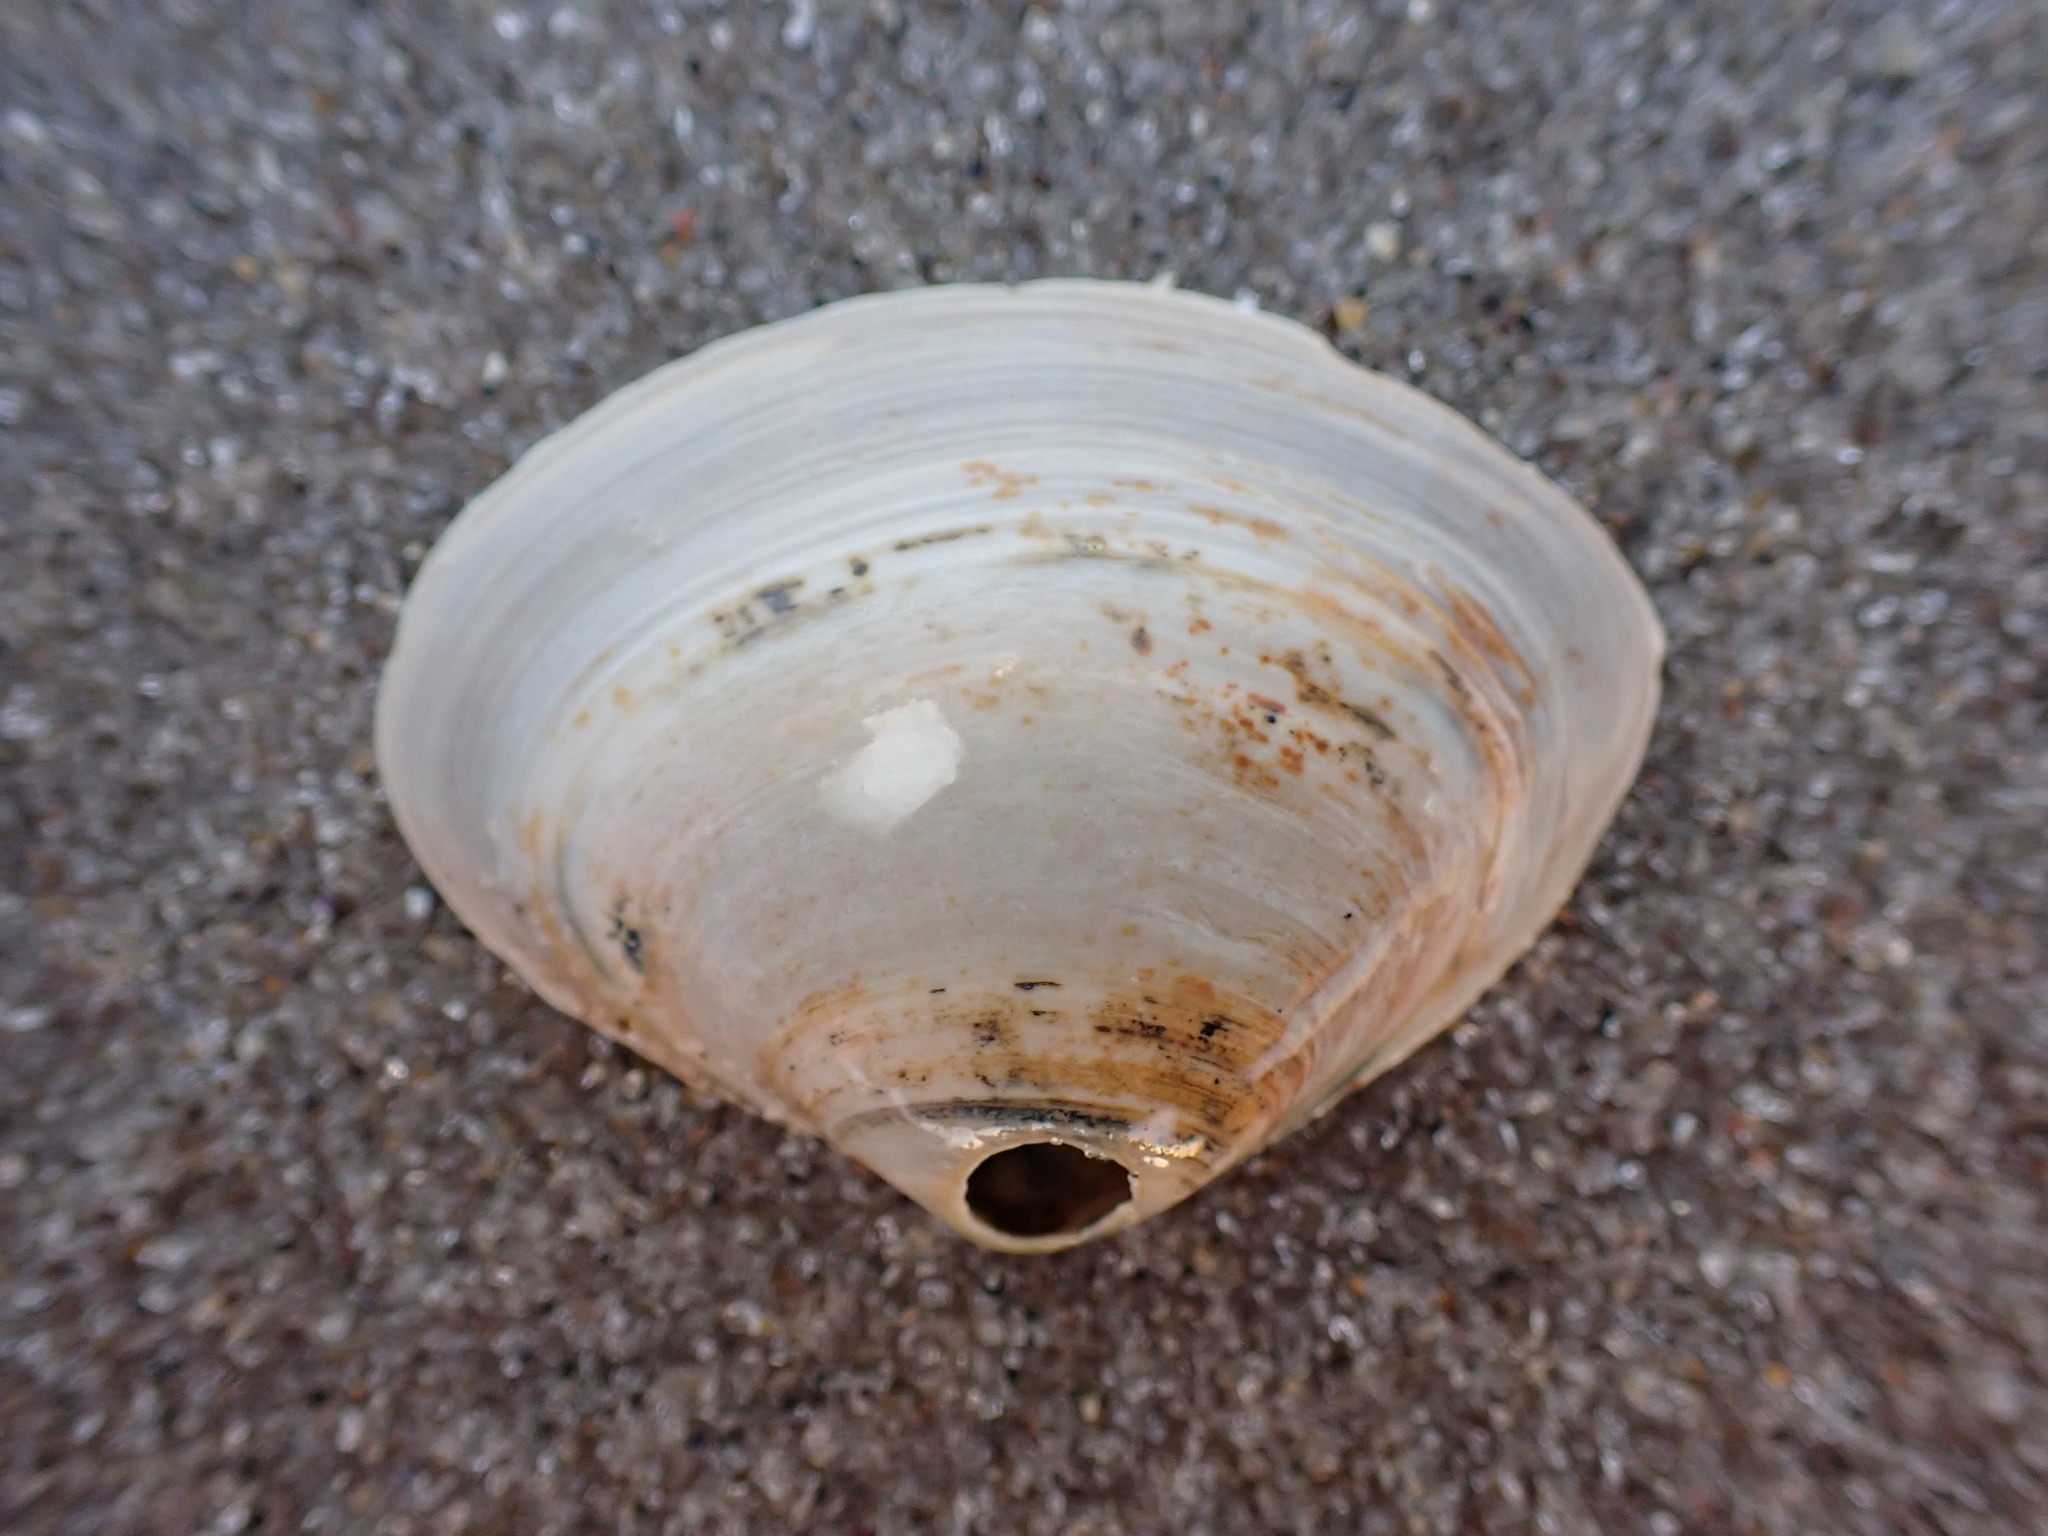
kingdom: Animalia
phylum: Mollusca
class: Bivalvia
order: Venerida
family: Mactridae
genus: Spisula
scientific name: Spisula solidissima
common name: Atlantic surf clam
